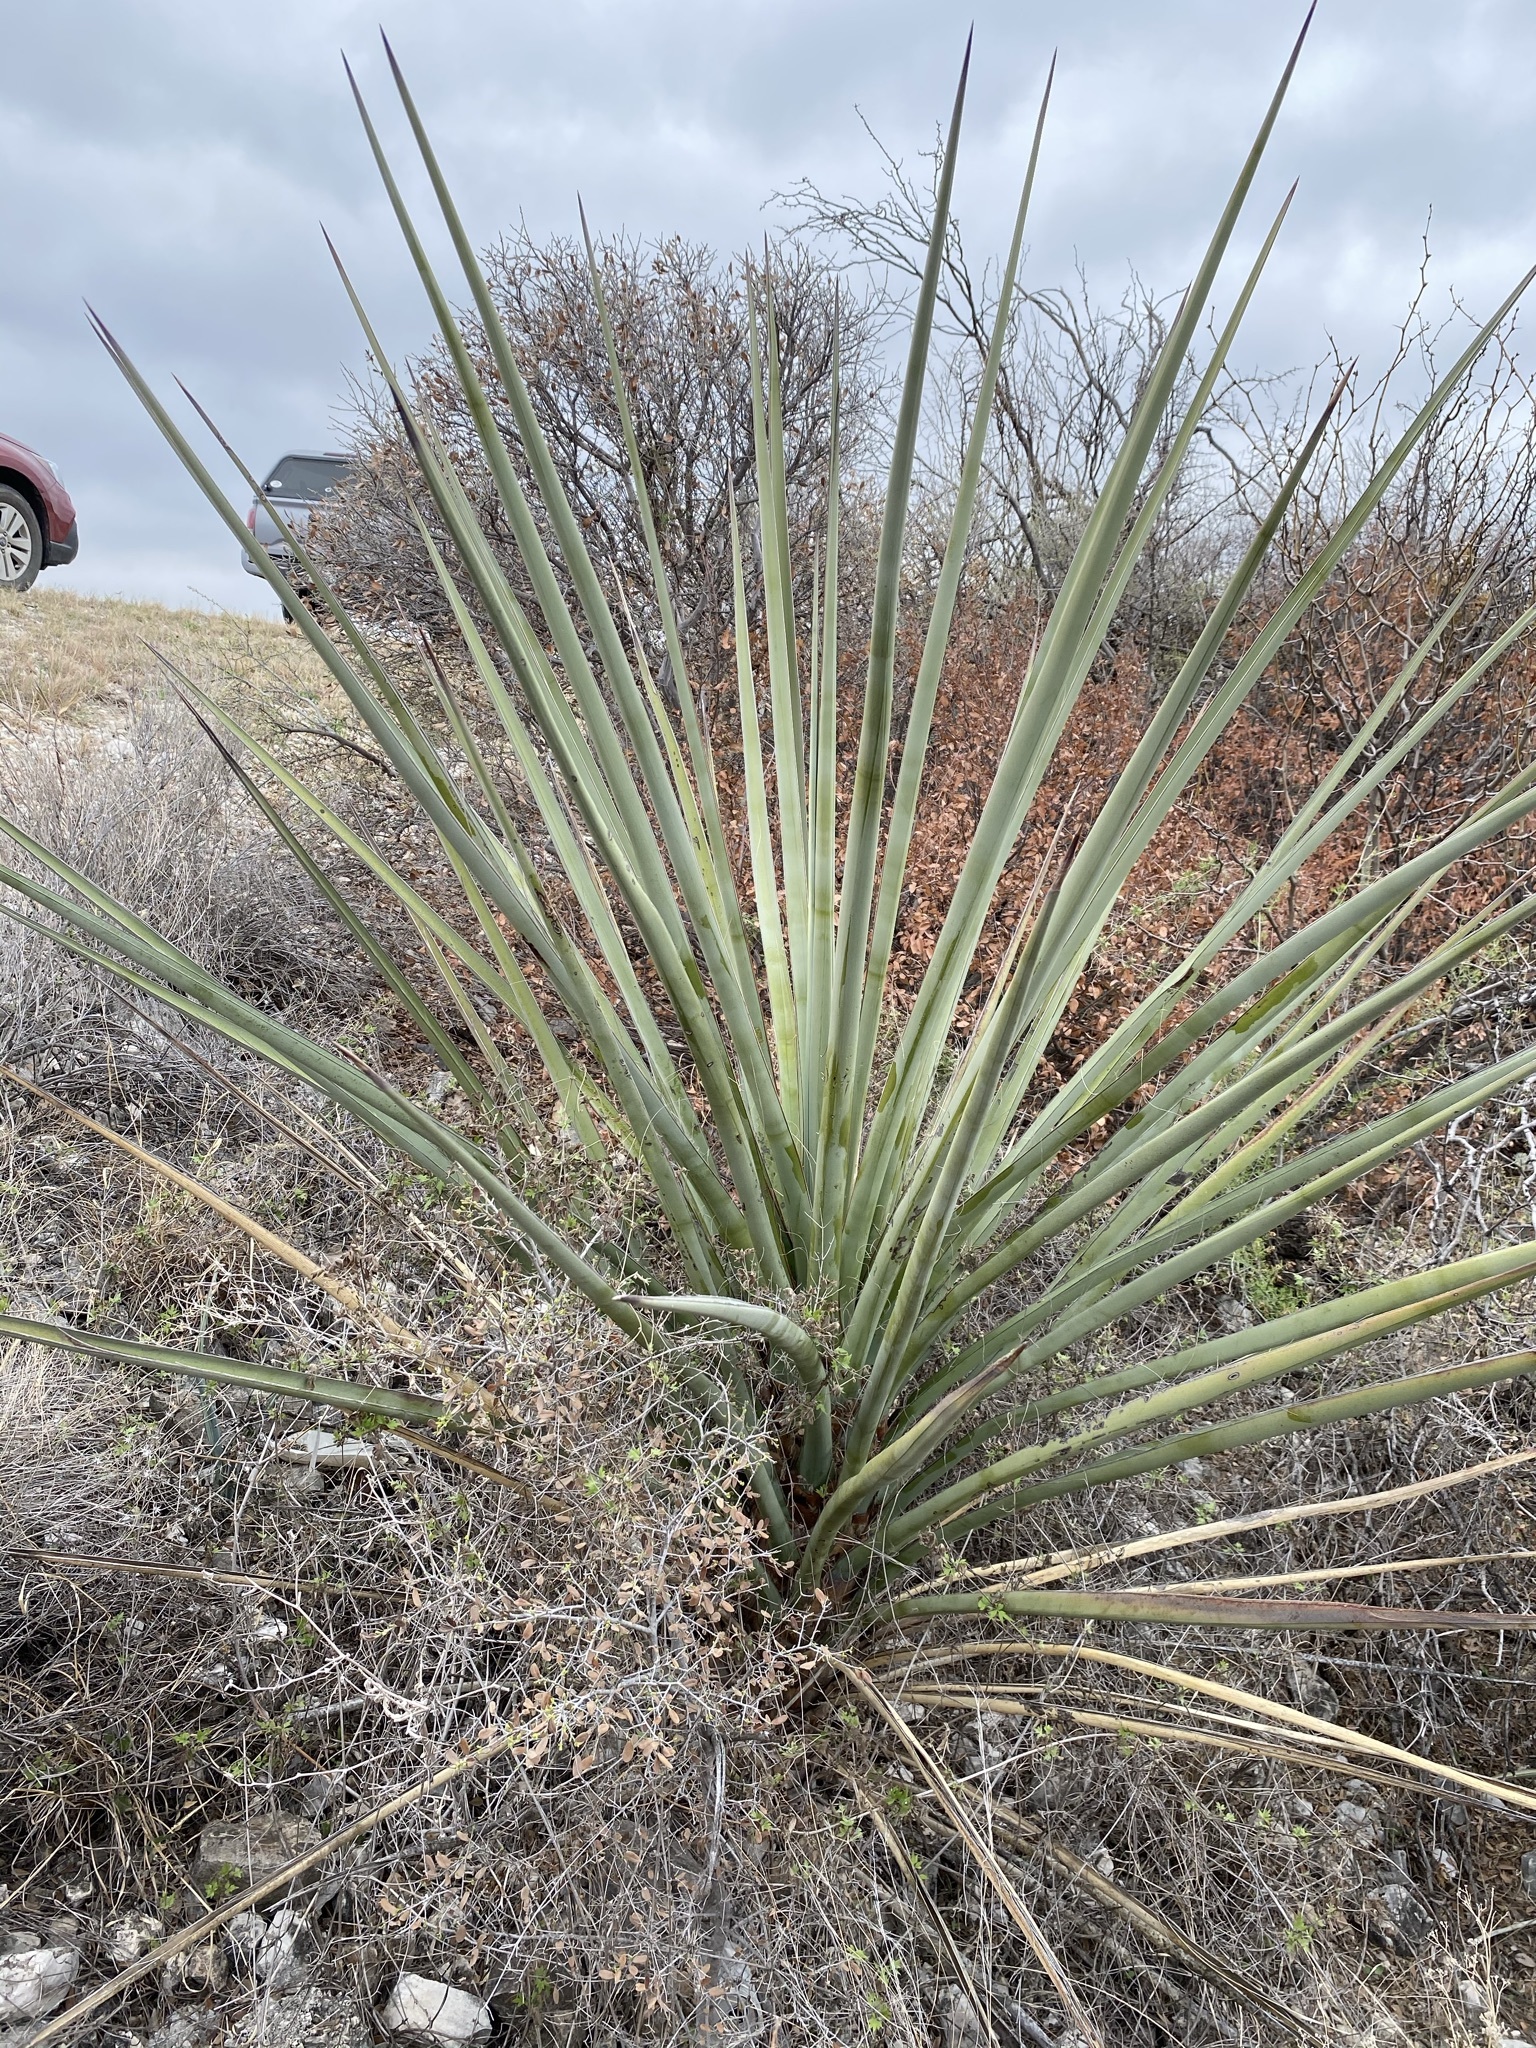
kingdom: Plantae
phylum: Tracheophyta
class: Liliopsida
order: Asparagales
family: Asparagaceae
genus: Yucca
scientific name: Yucca treculiana
